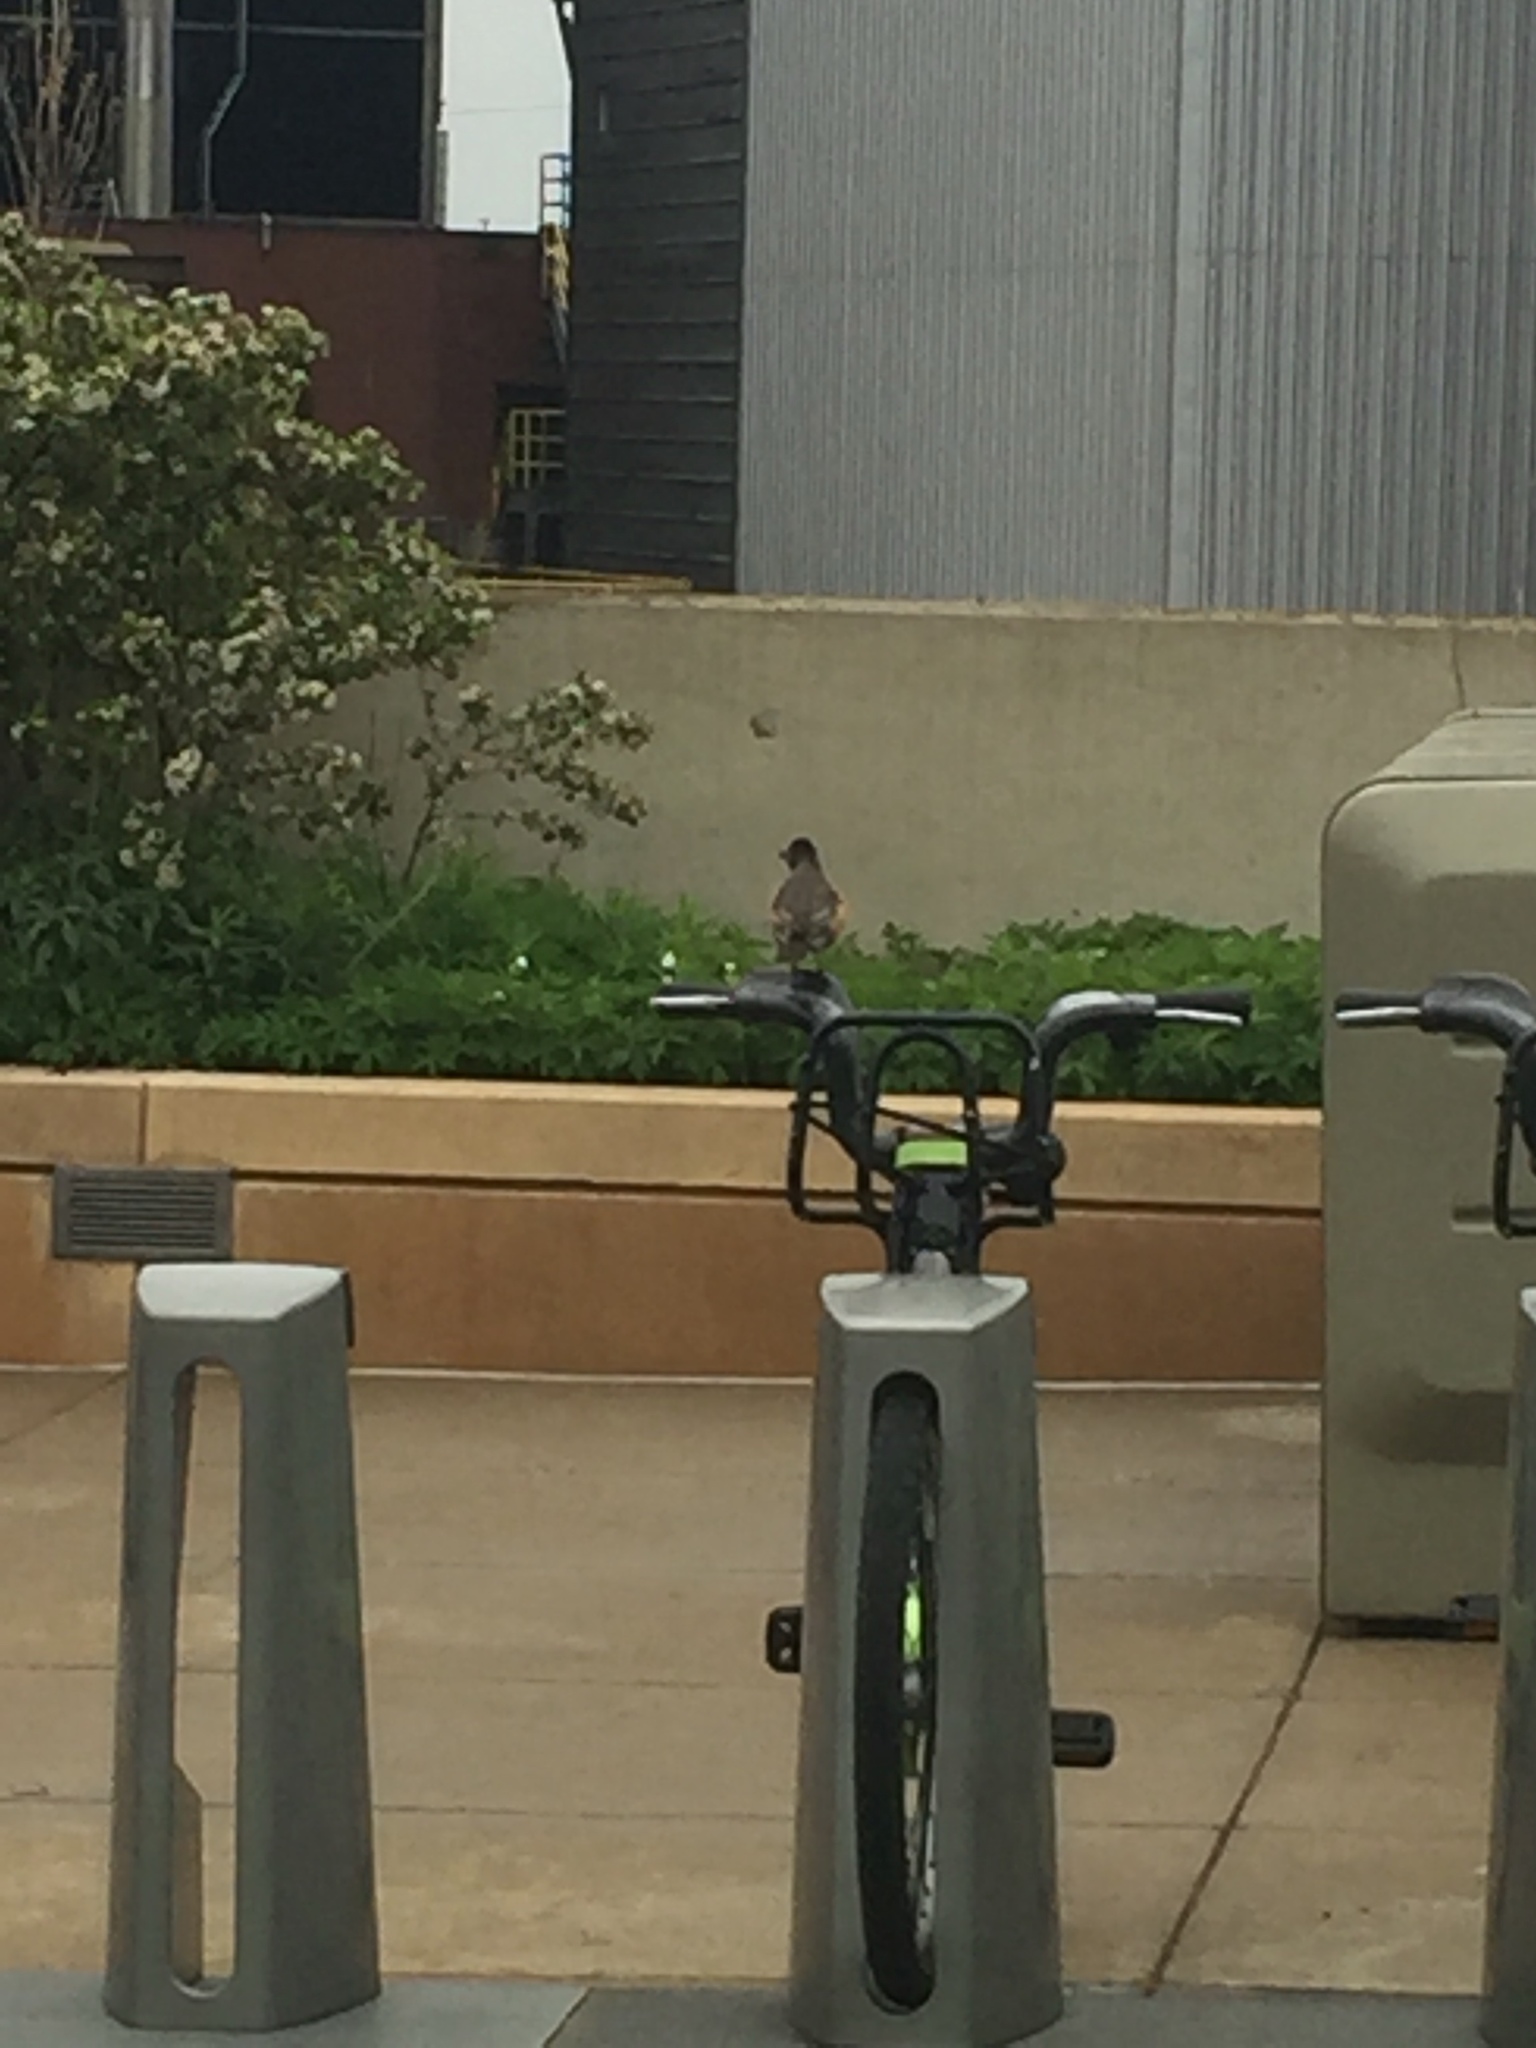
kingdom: Animalia
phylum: Chordata
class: Aves
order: Passeriformes
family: Turdidae
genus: Turdus
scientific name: Turdus migratorius
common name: American robin
